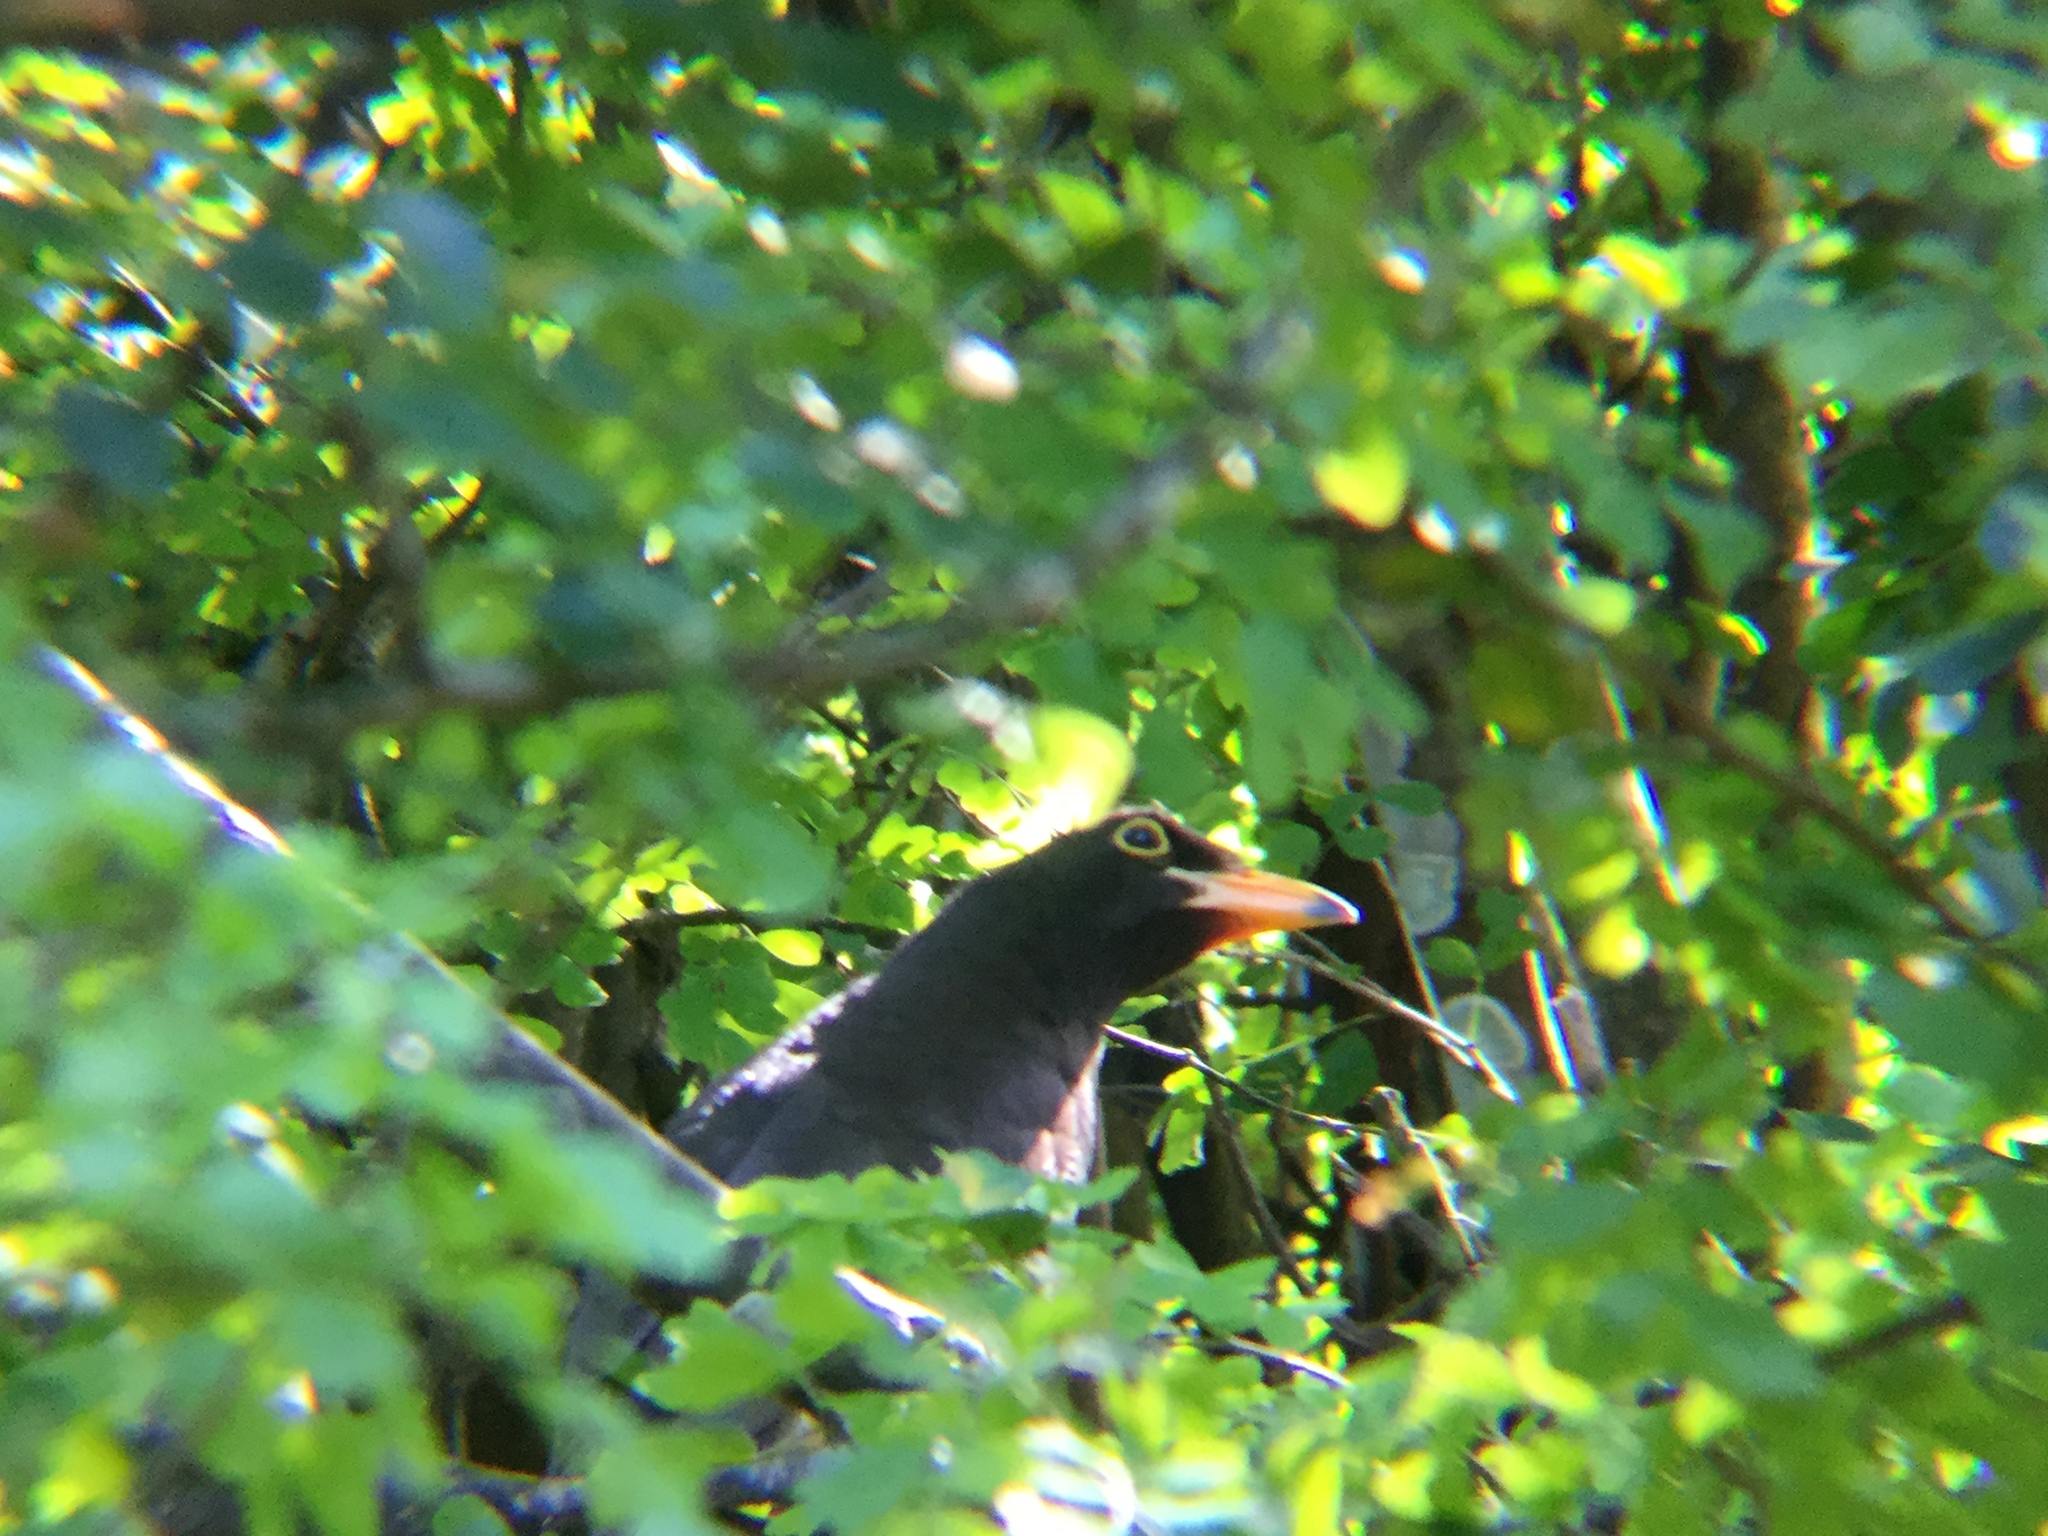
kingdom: Animalia
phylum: Chordata
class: Aves
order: Passeriformes
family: Corvidae
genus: Psilorhinus
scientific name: Psilorhinus morio
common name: Brown jay
